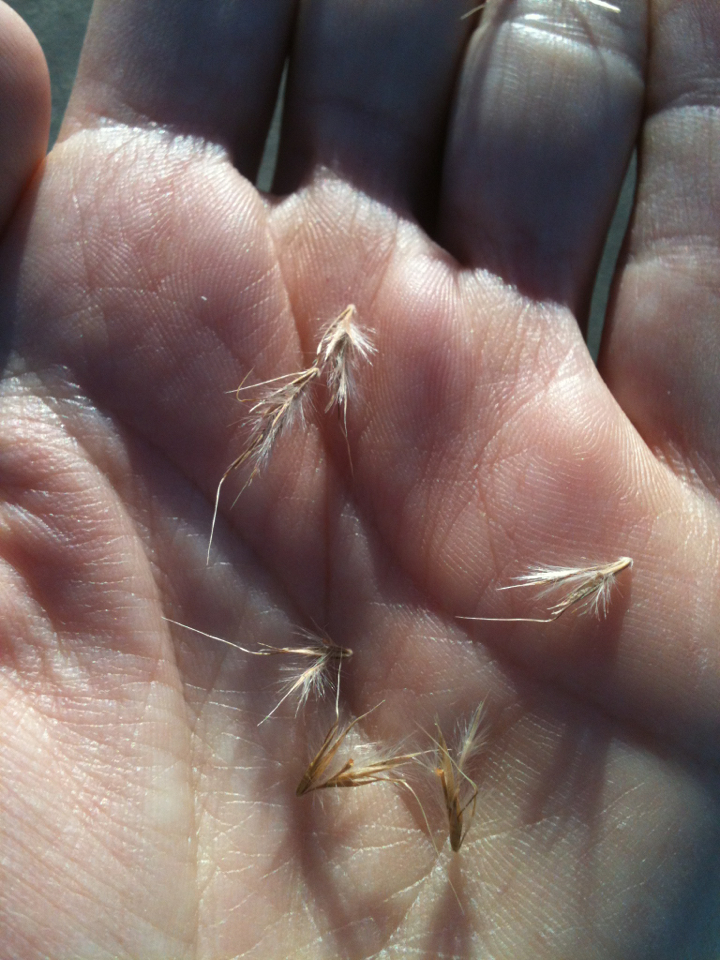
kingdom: Plantae
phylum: Tracheophyta
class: Liliopsida
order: Poales
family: Poaceae
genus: Schizachyrium
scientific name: Schizachyrium scoparium
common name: Little bluestem
